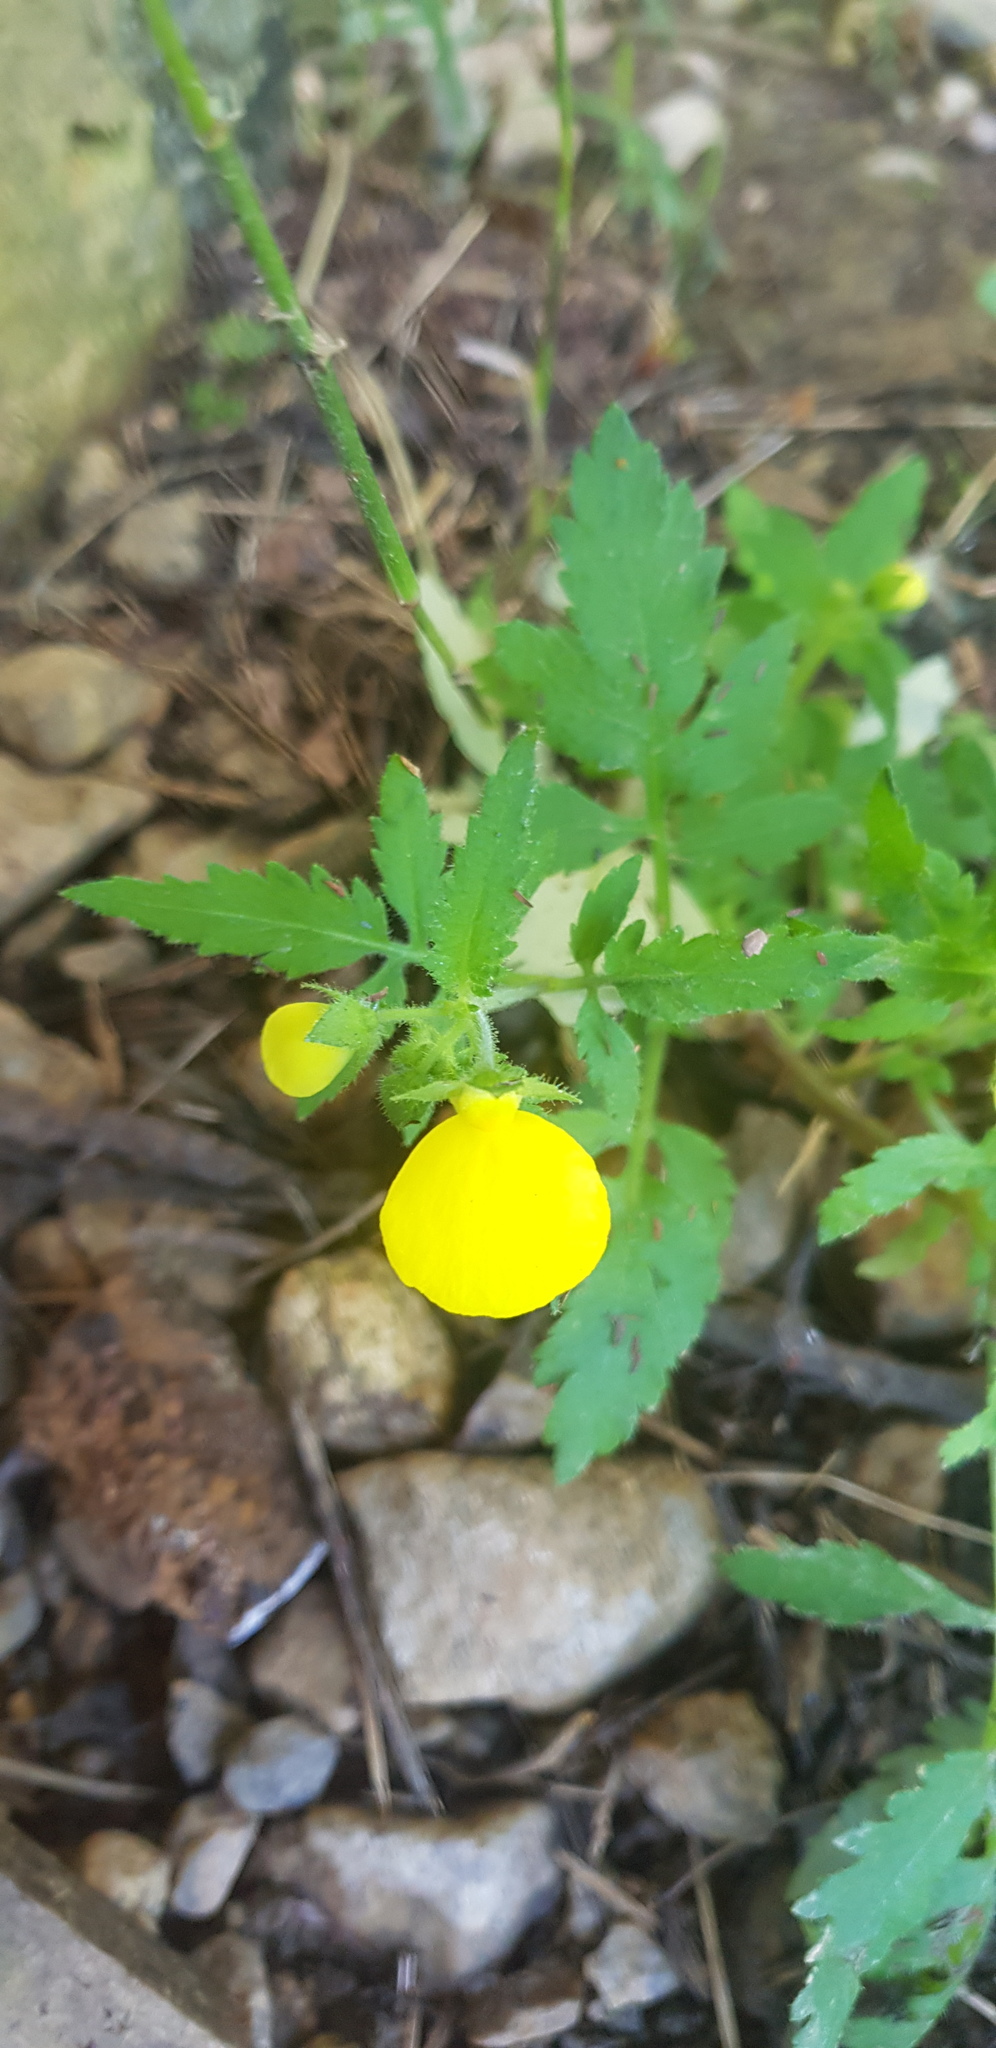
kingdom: Plantae
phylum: Tracheophyta
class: Magnoliopsida
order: Lamiales
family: Calceolariaceae
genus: Calceolaria
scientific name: Calceolaria tripartita
